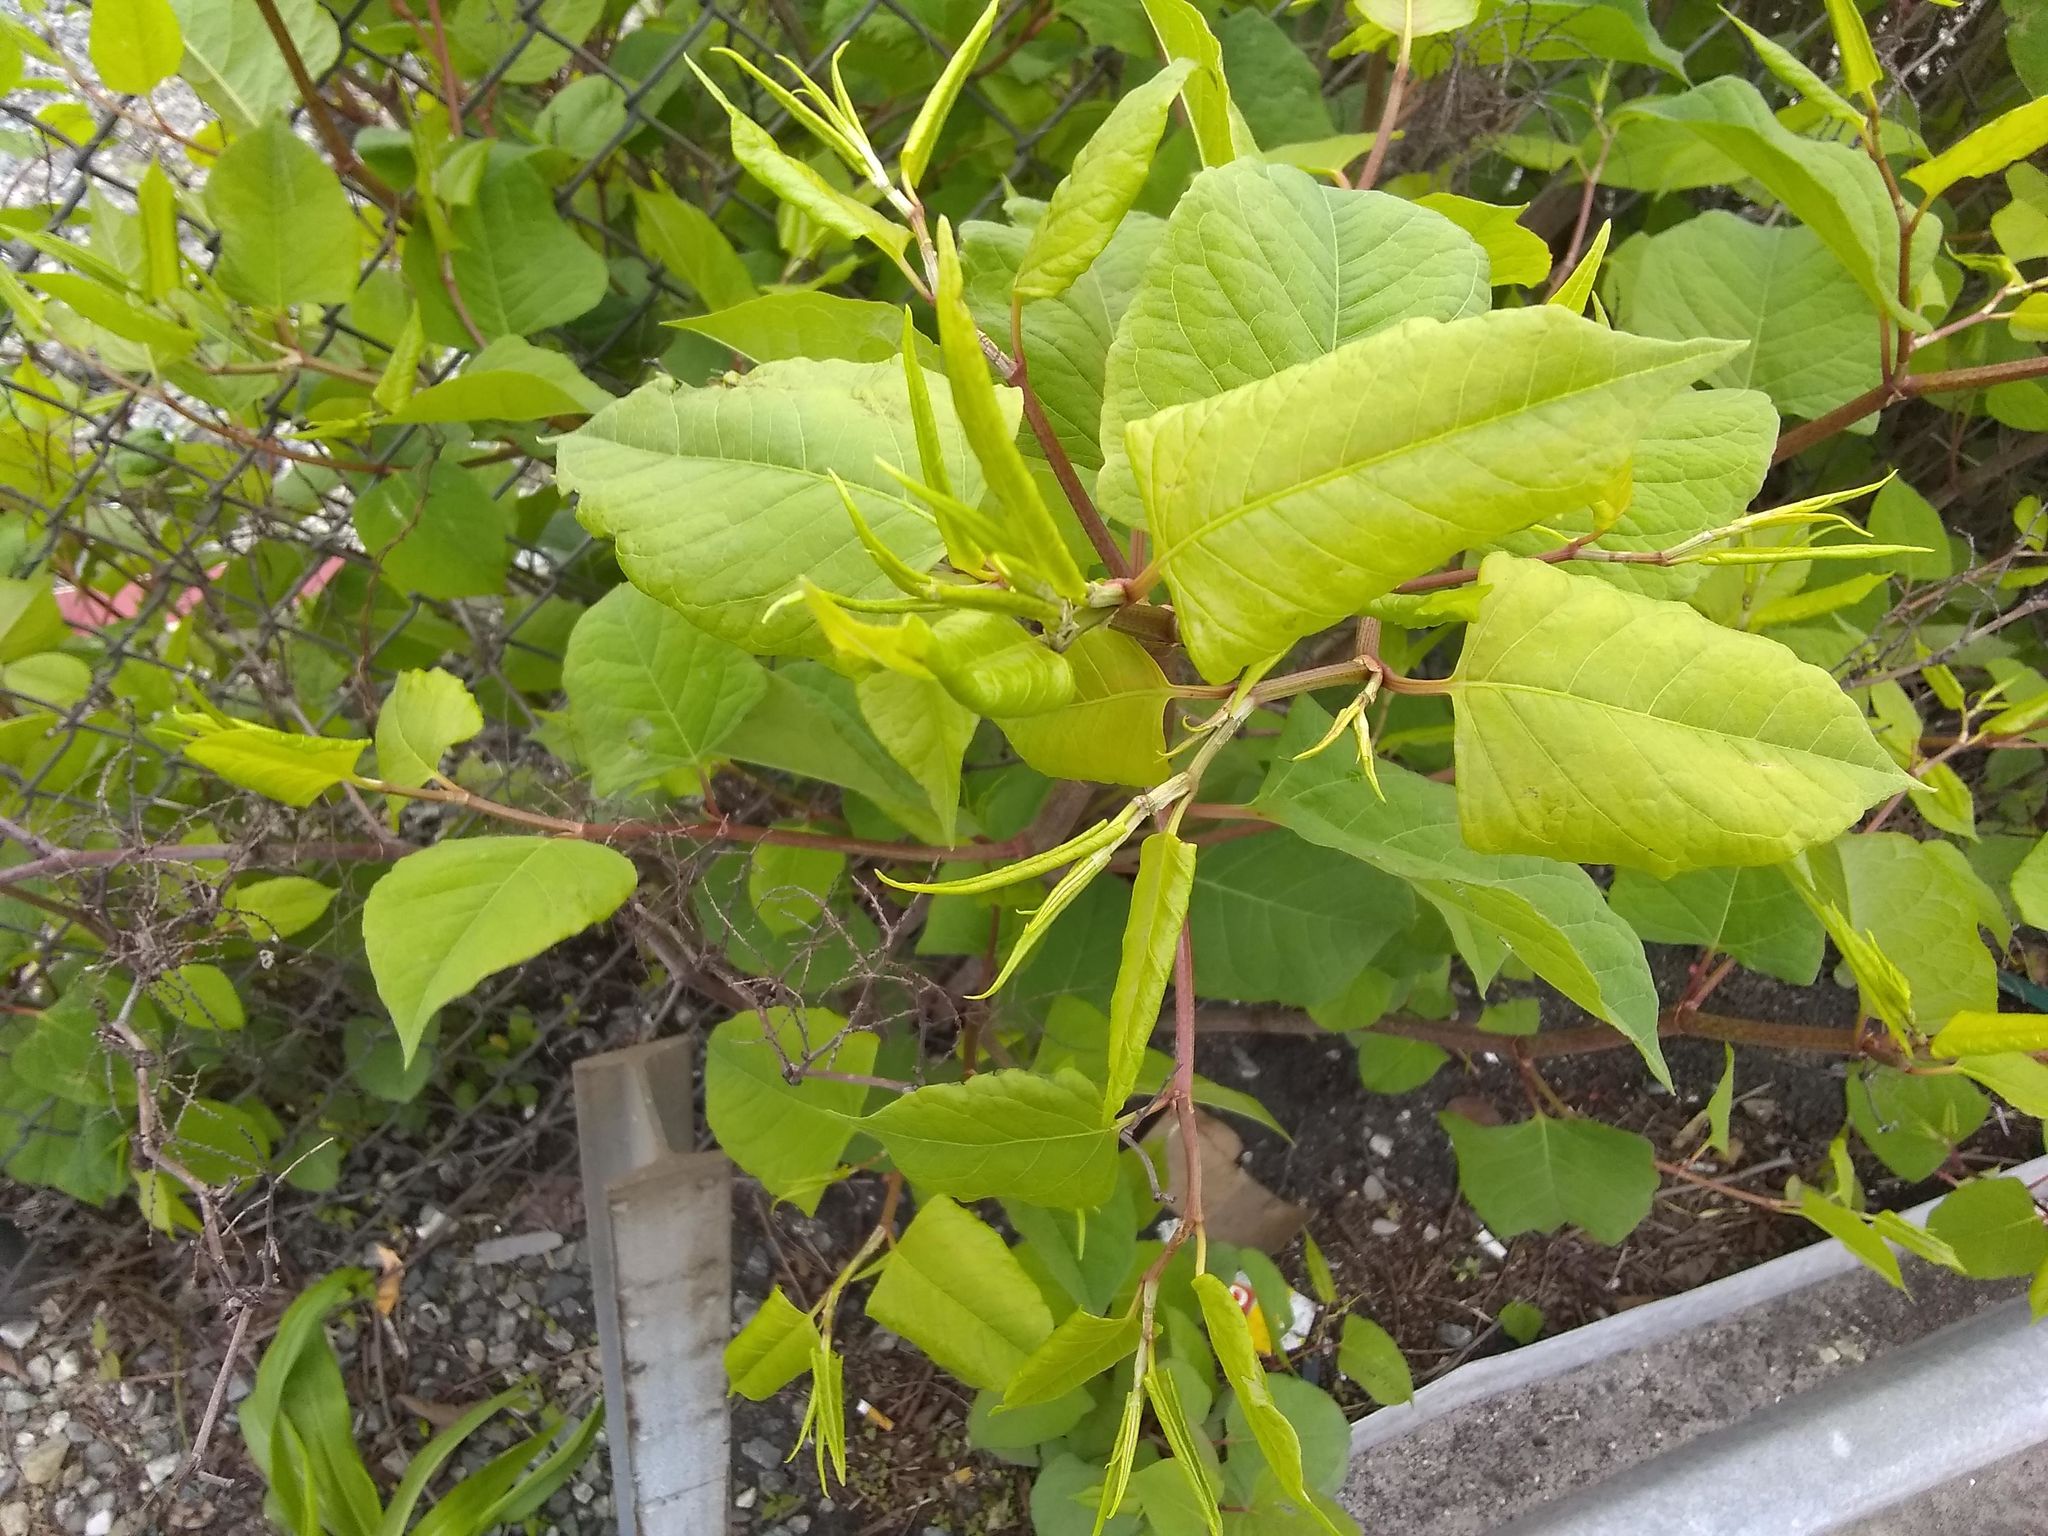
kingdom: Plantae
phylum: Tracheophyta
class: Magnoliopsida
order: Caryophyllales
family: Polygonaceae
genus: Reynoutria
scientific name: Reynoutria japonica
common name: Japanese knotweed
